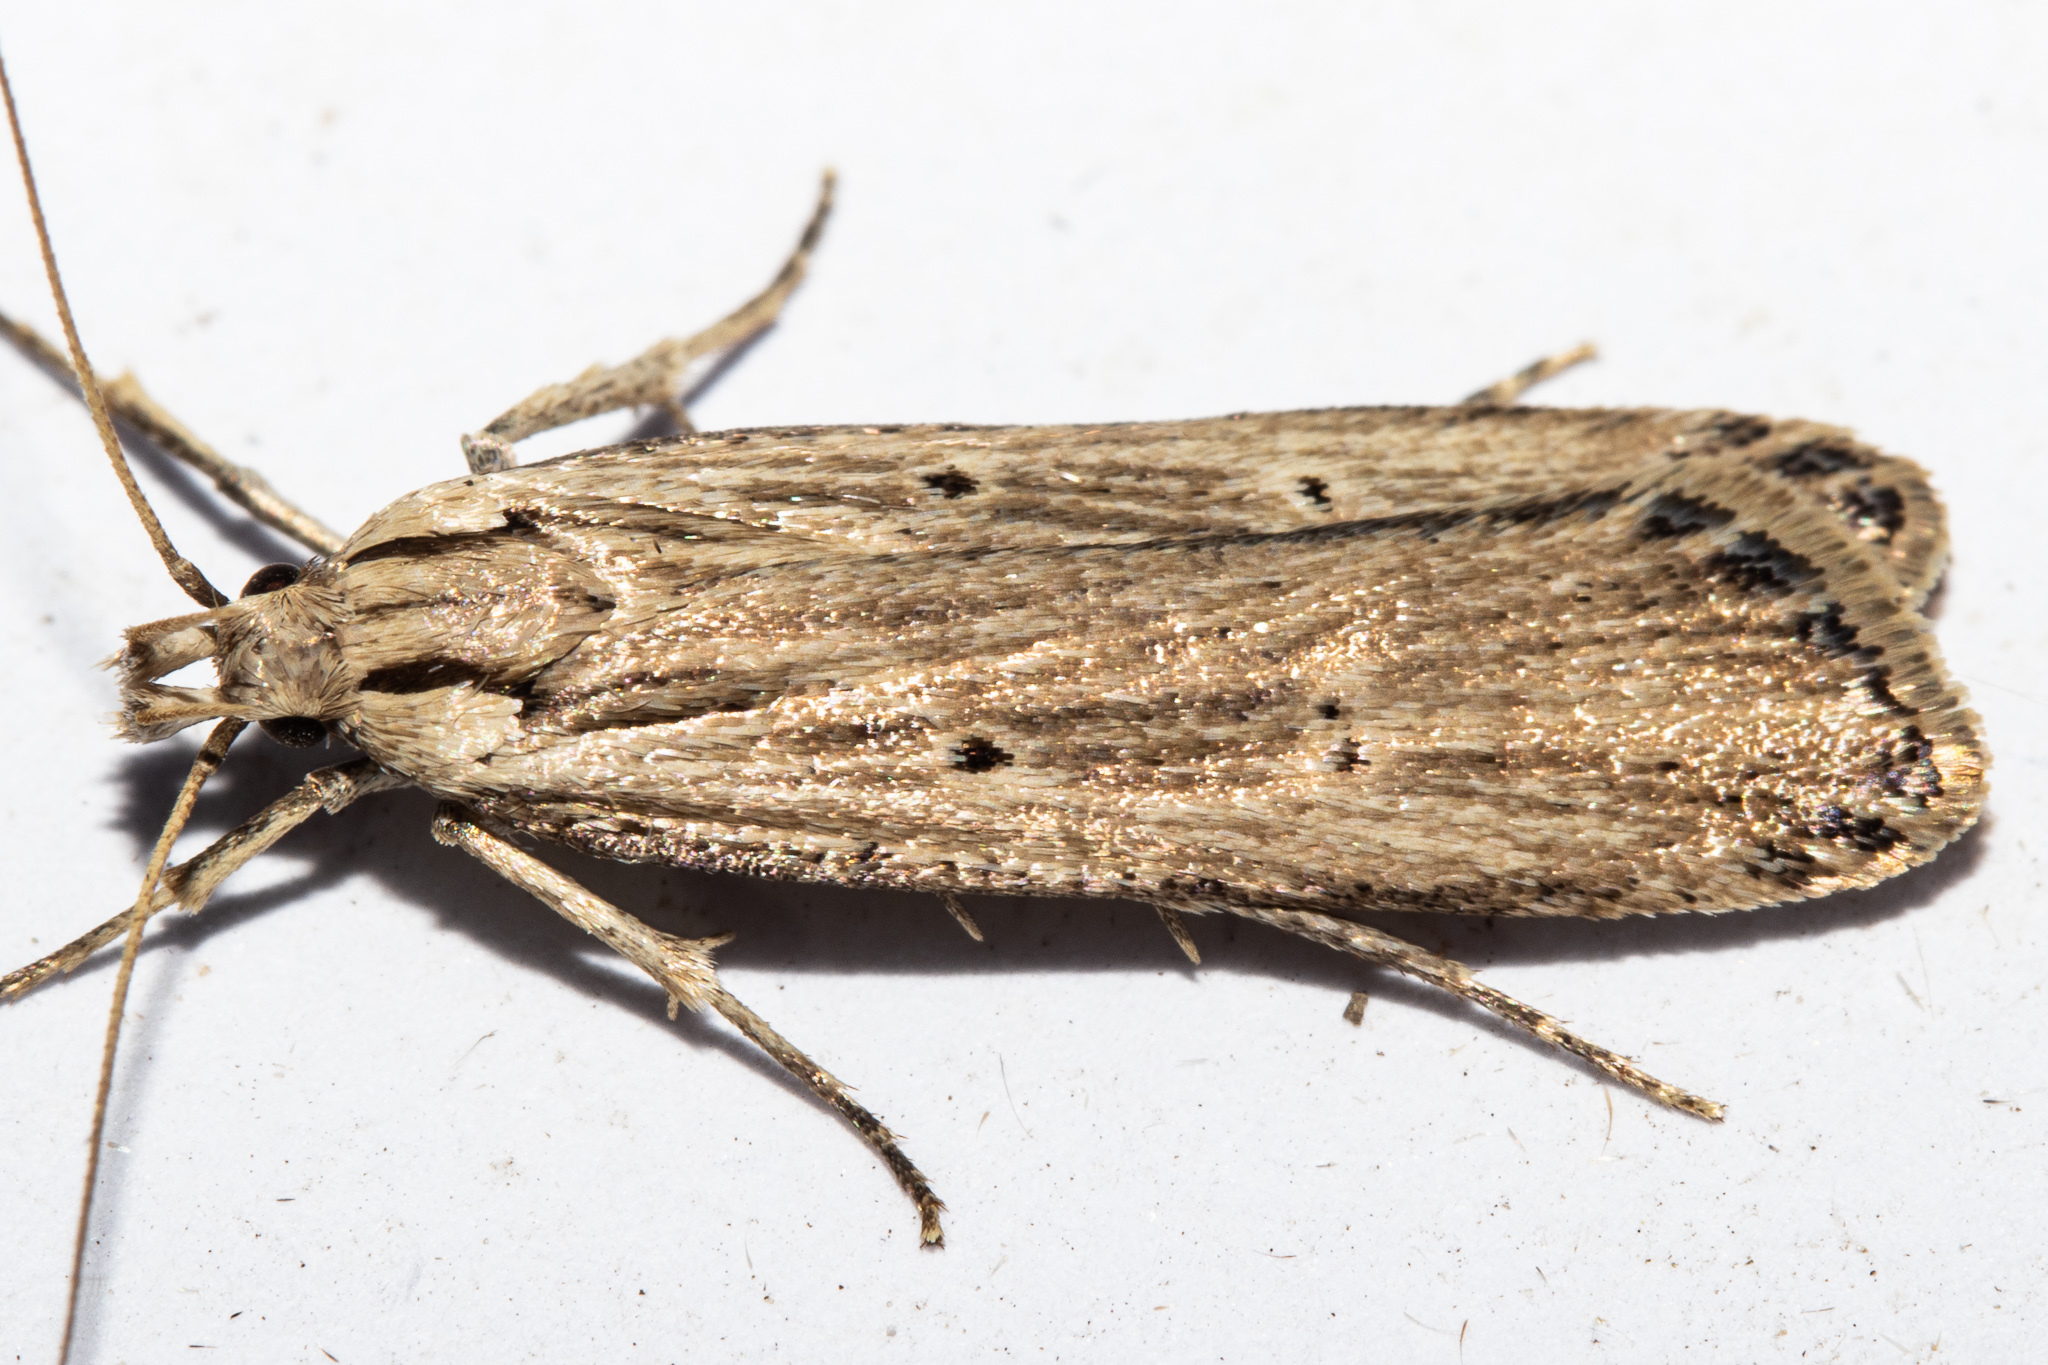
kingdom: Animalia
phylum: Arthropoda
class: Insecta
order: Lepidoptera
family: Gelechiidae
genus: Anisoplaca
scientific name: Anisoplaca ptyoptera
